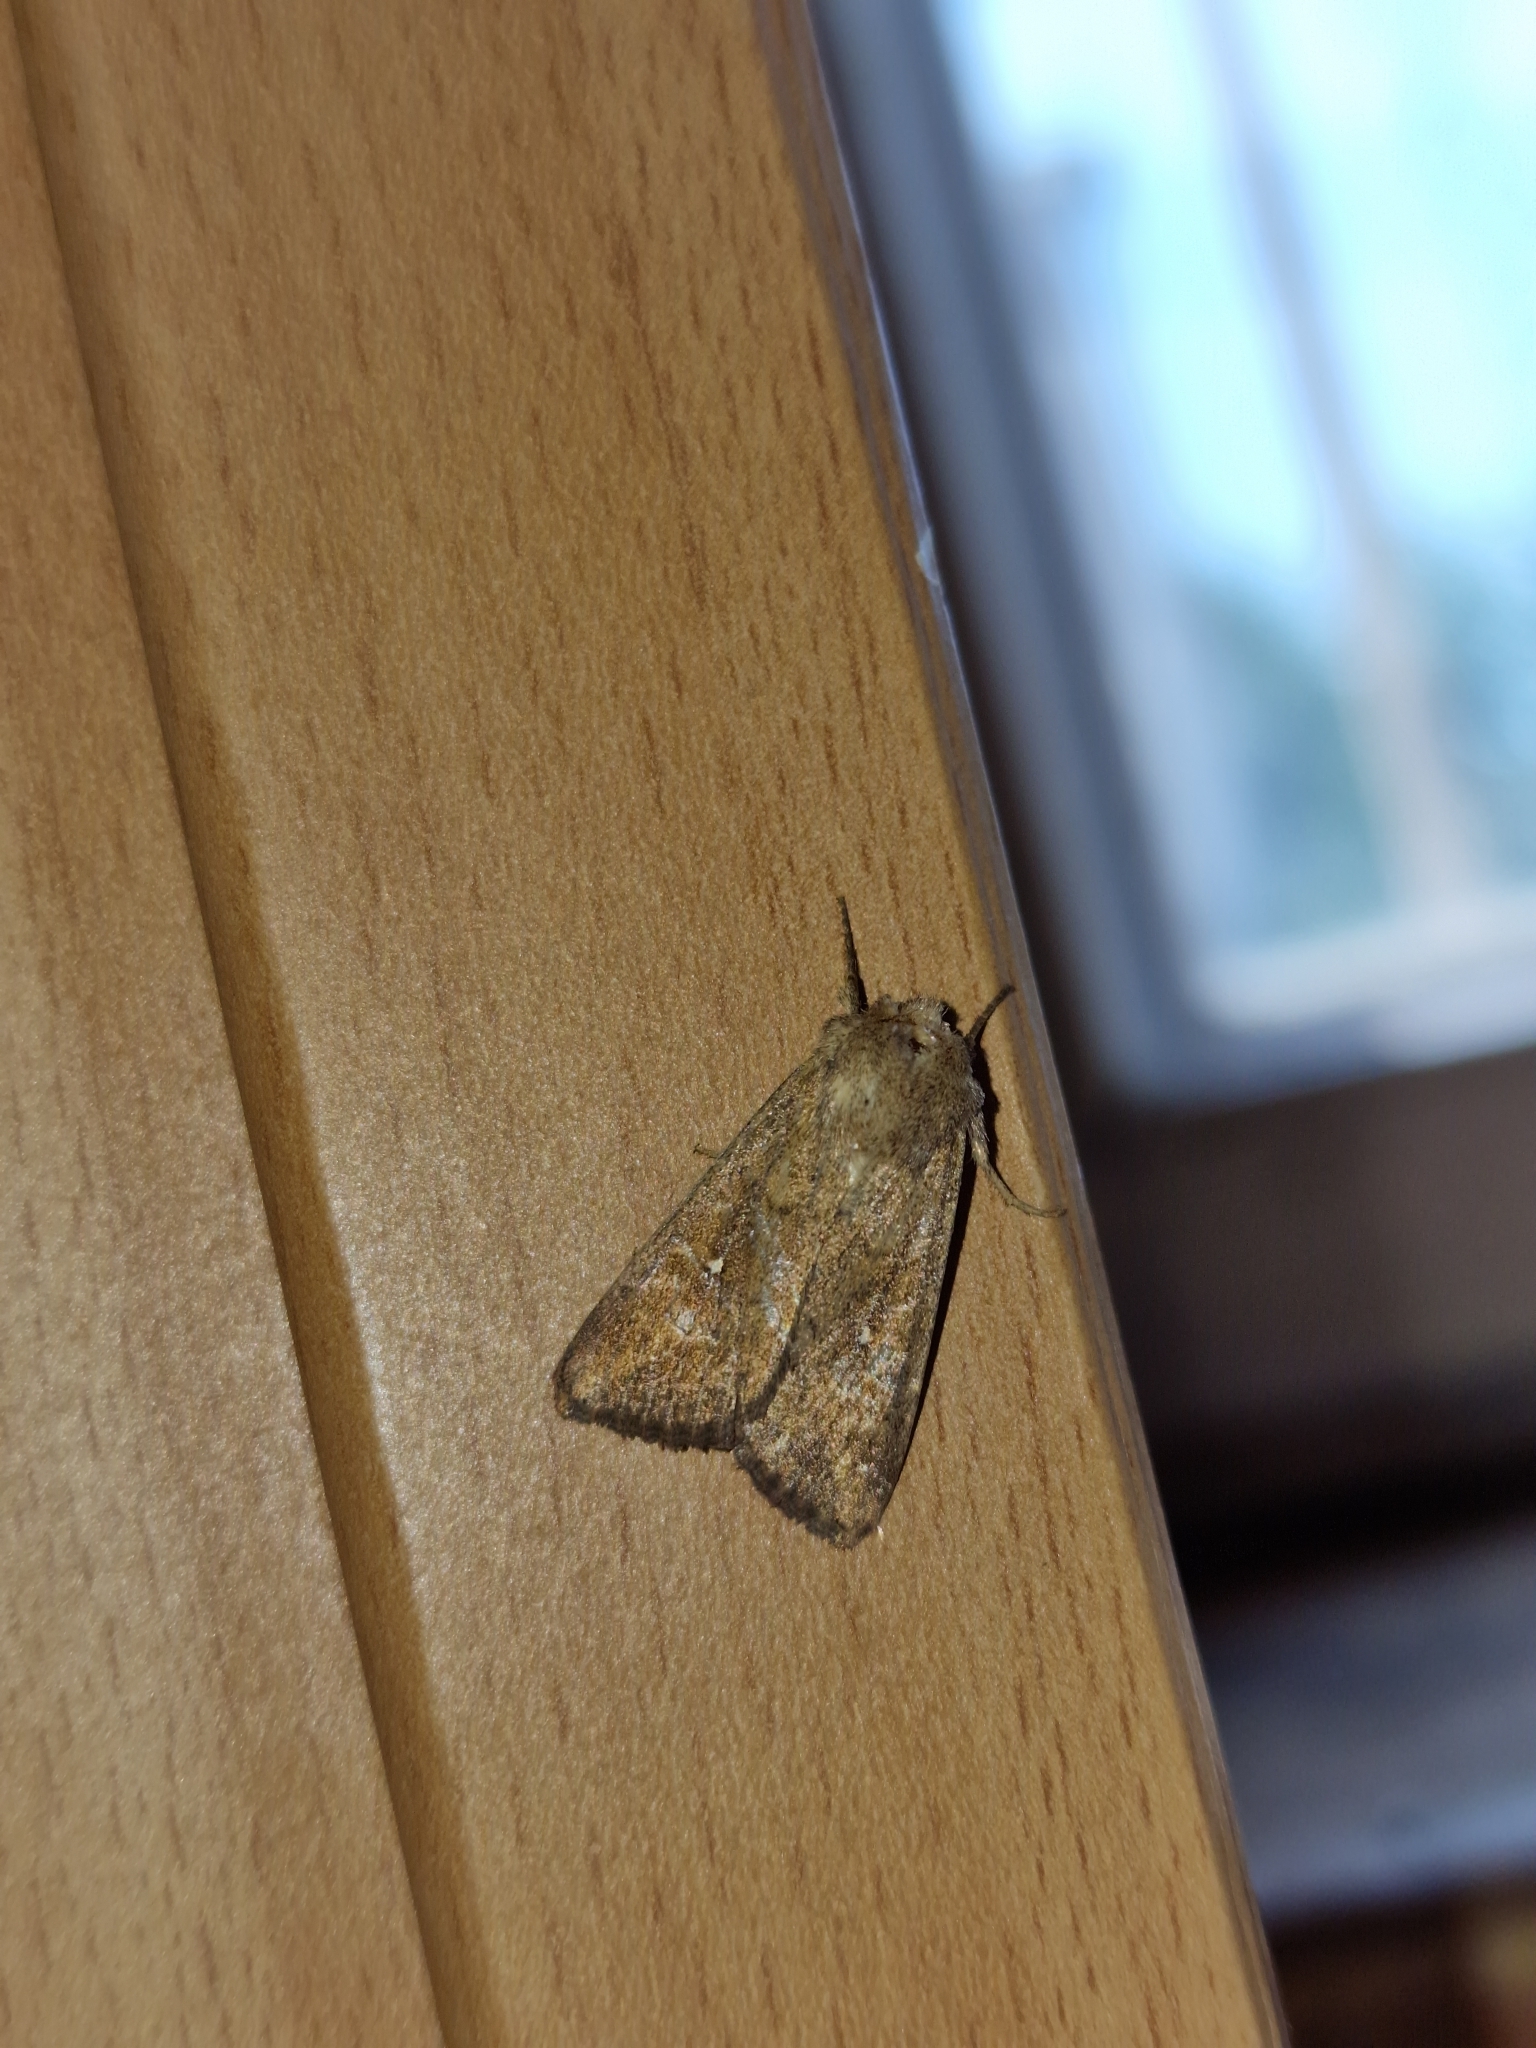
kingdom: Animalia
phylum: Arthropoda
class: Insecta
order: Lepidoptera
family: Noctuidae
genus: Mythimna
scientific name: Mythimna albipuncta
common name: White-point
